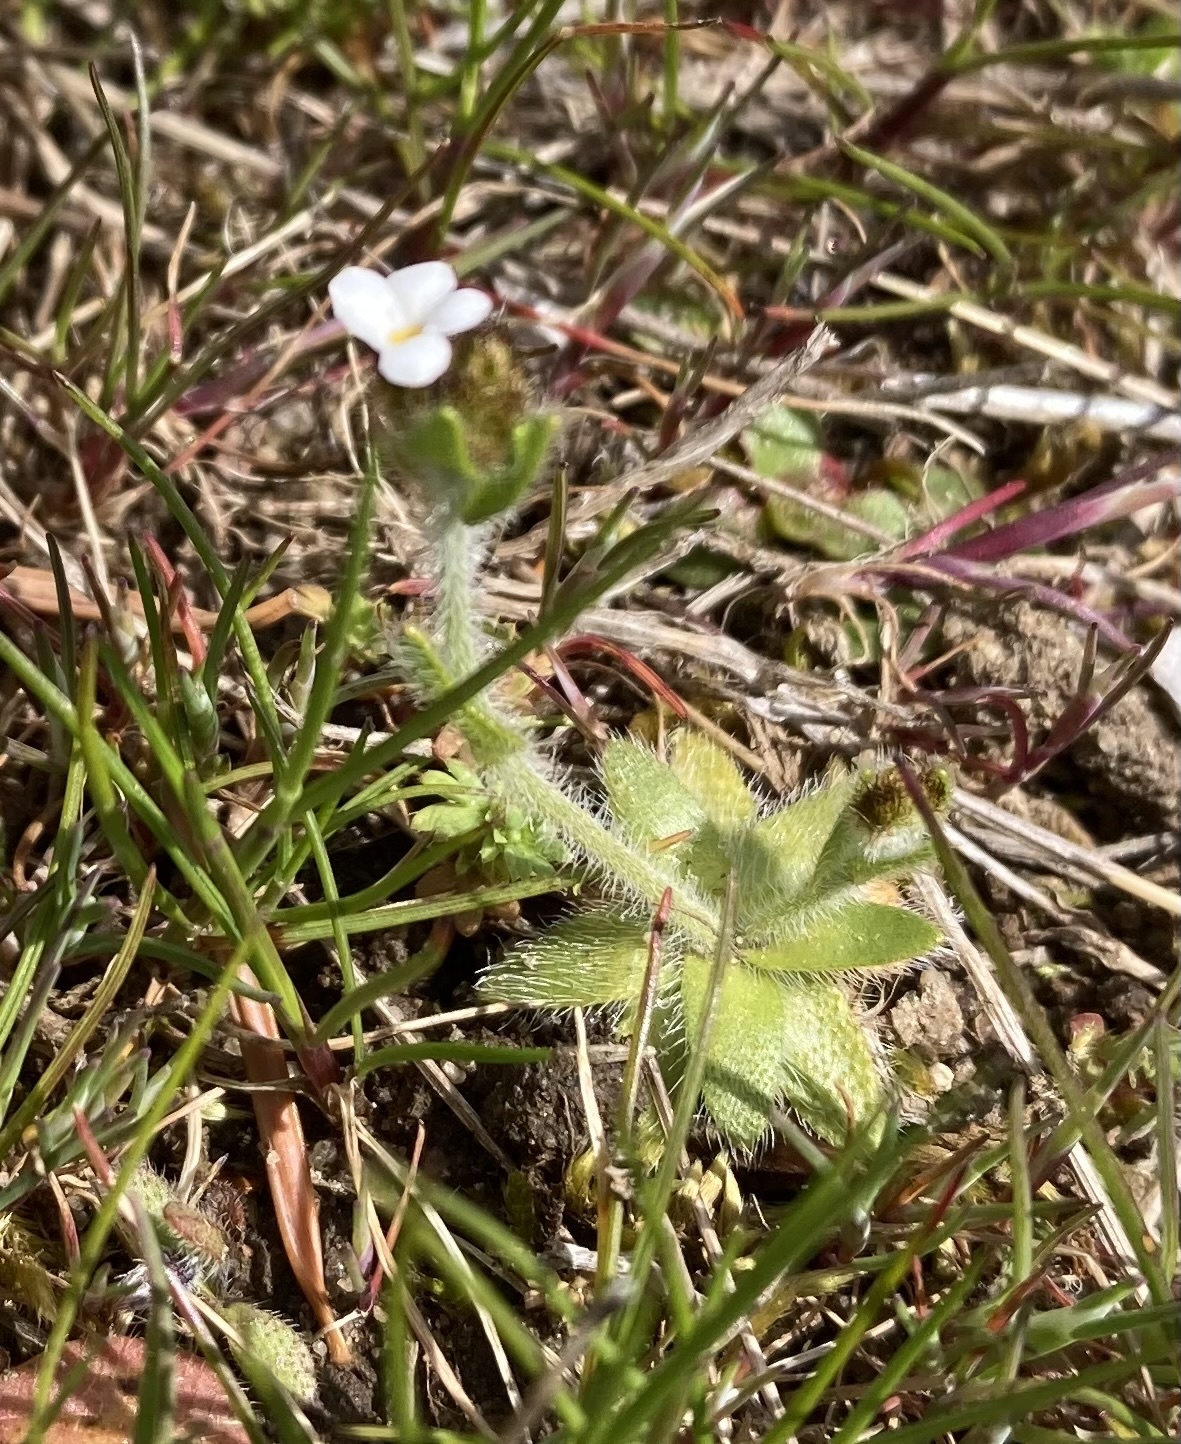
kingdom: Plantae
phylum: Tracheophyta
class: Magnoliopsida
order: Boraginales
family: Boraginaceae
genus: Plagiobothrys
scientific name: Plagiobothrys tenellus
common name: Pacific popcornflower
